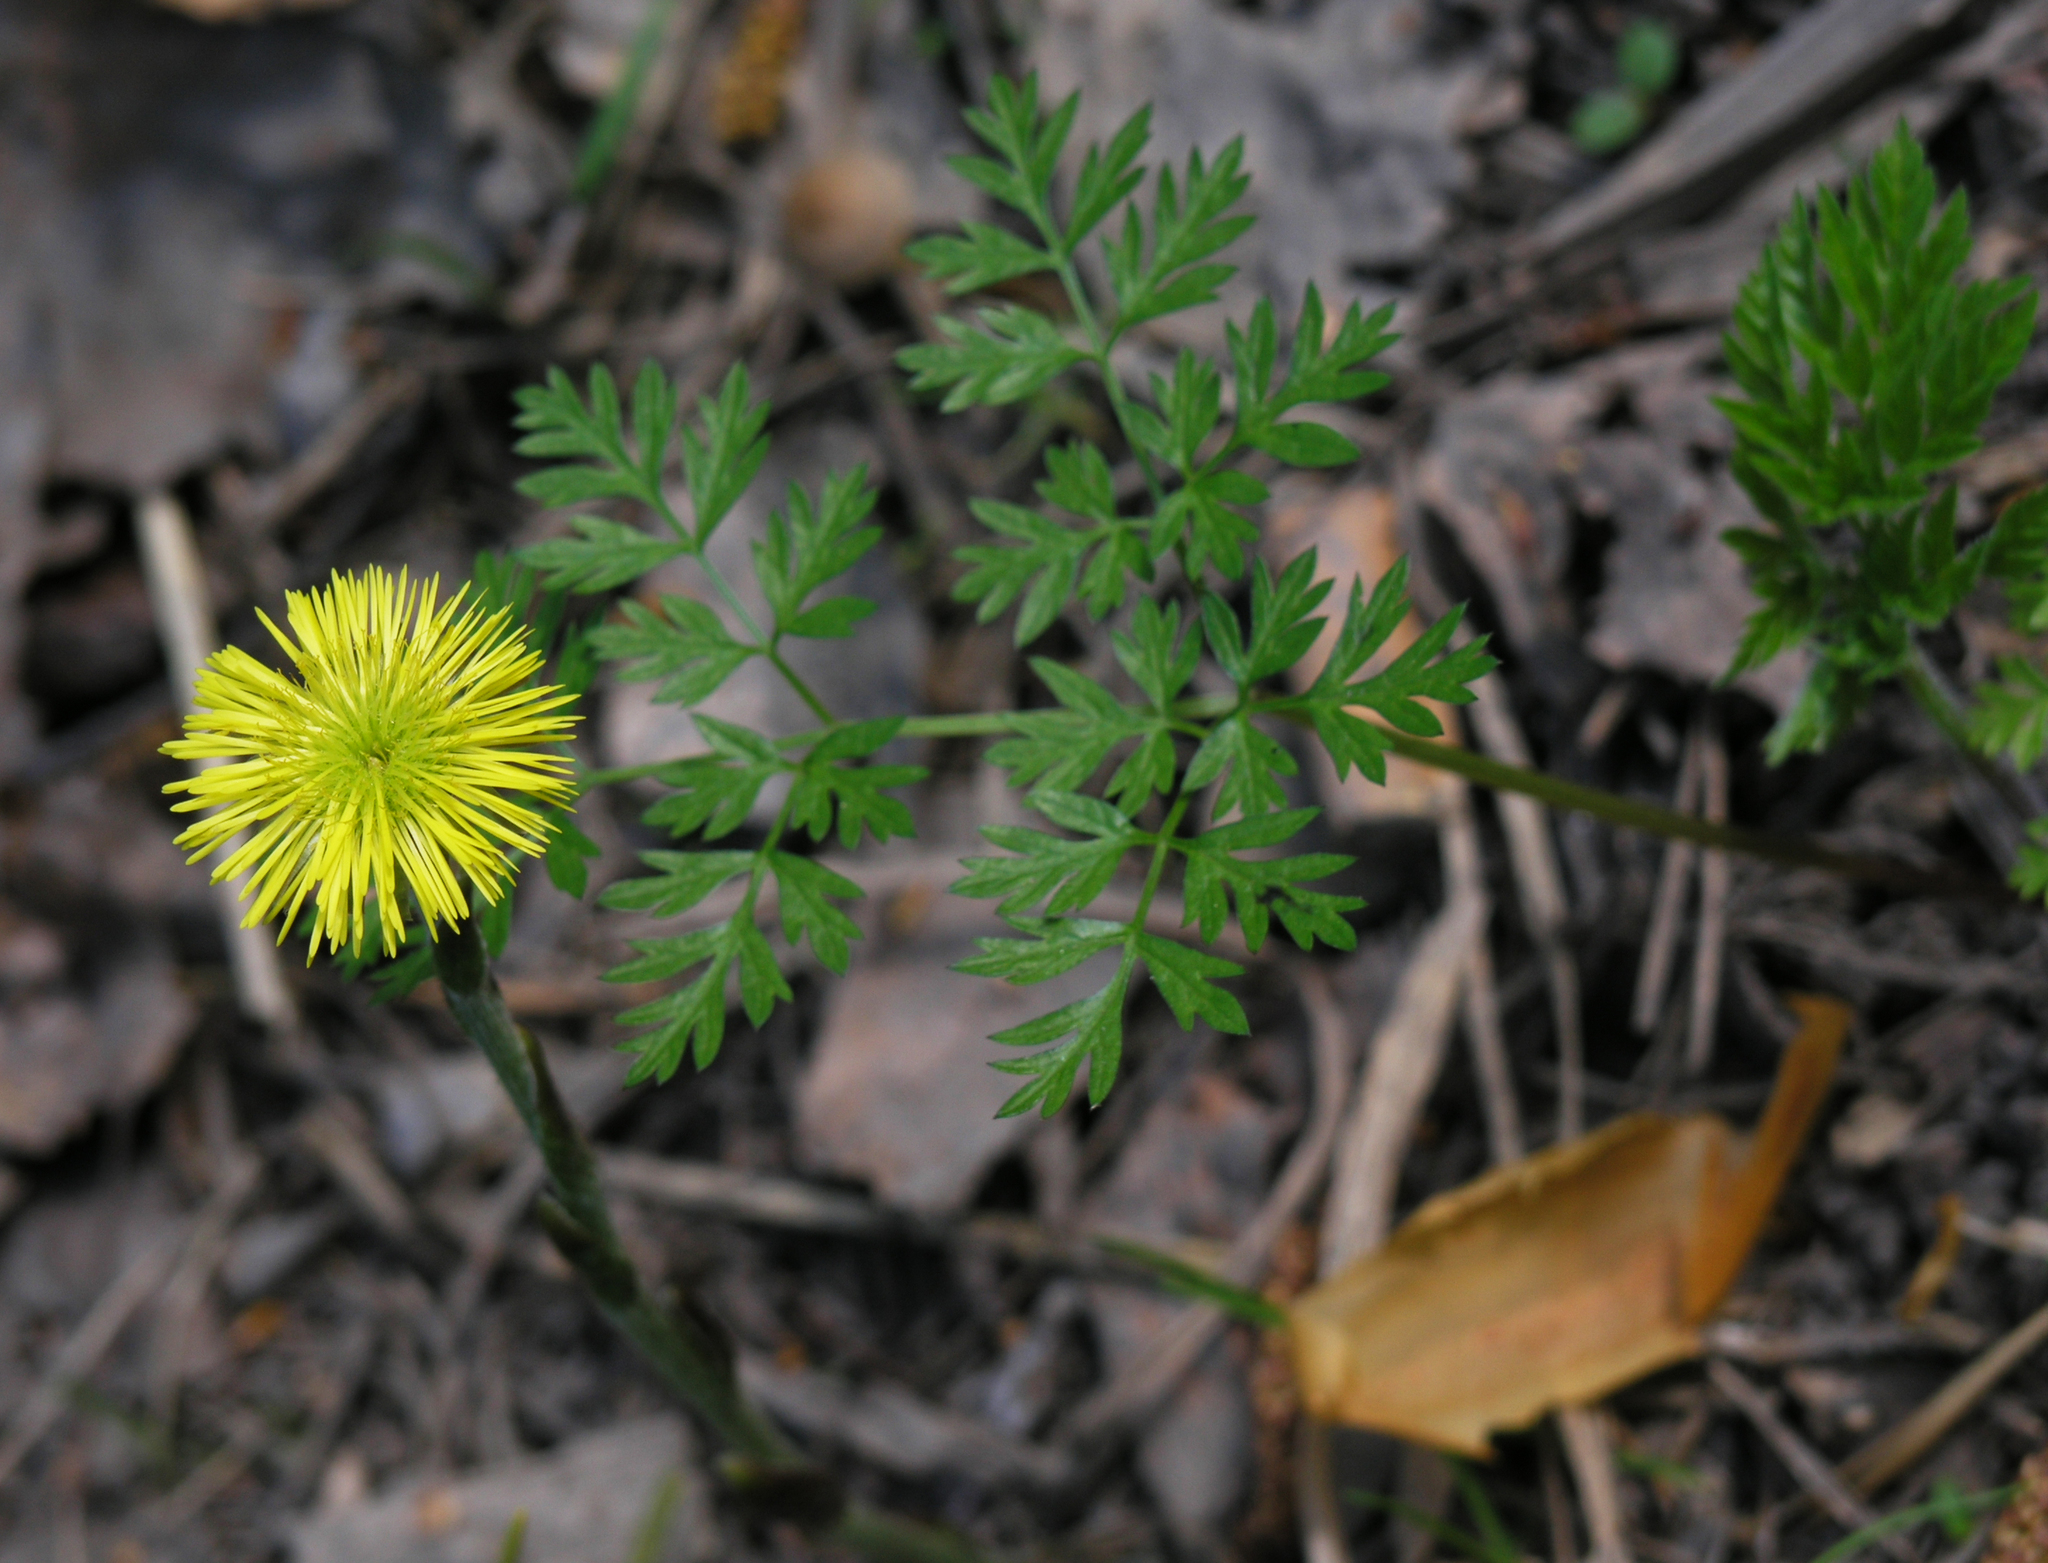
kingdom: Plantae
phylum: Tracheophyta
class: Magnoliopsida
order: Asterales
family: Asteraceae
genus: Tussilago
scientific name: Tussilago farfara
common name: Coltsfoot
